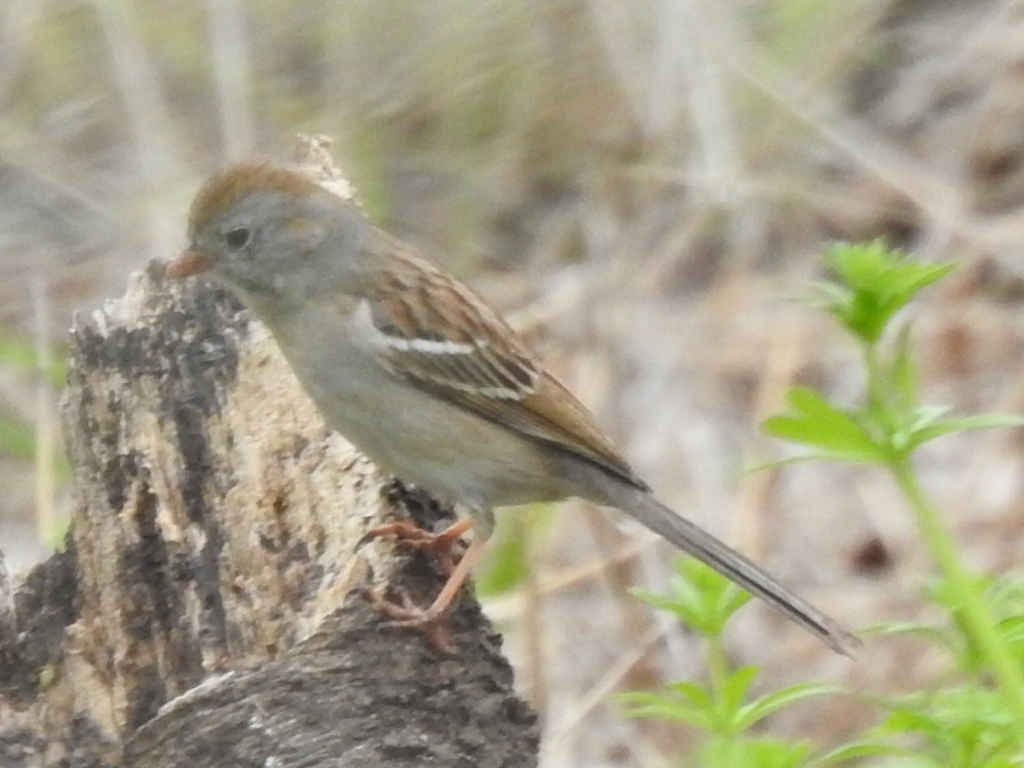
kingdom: Animalia
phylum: Chordata
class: Aves
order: Passeriformes
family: Passerellidae
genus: Spizella
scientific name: Spizella pusilla
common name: Field sparrow
